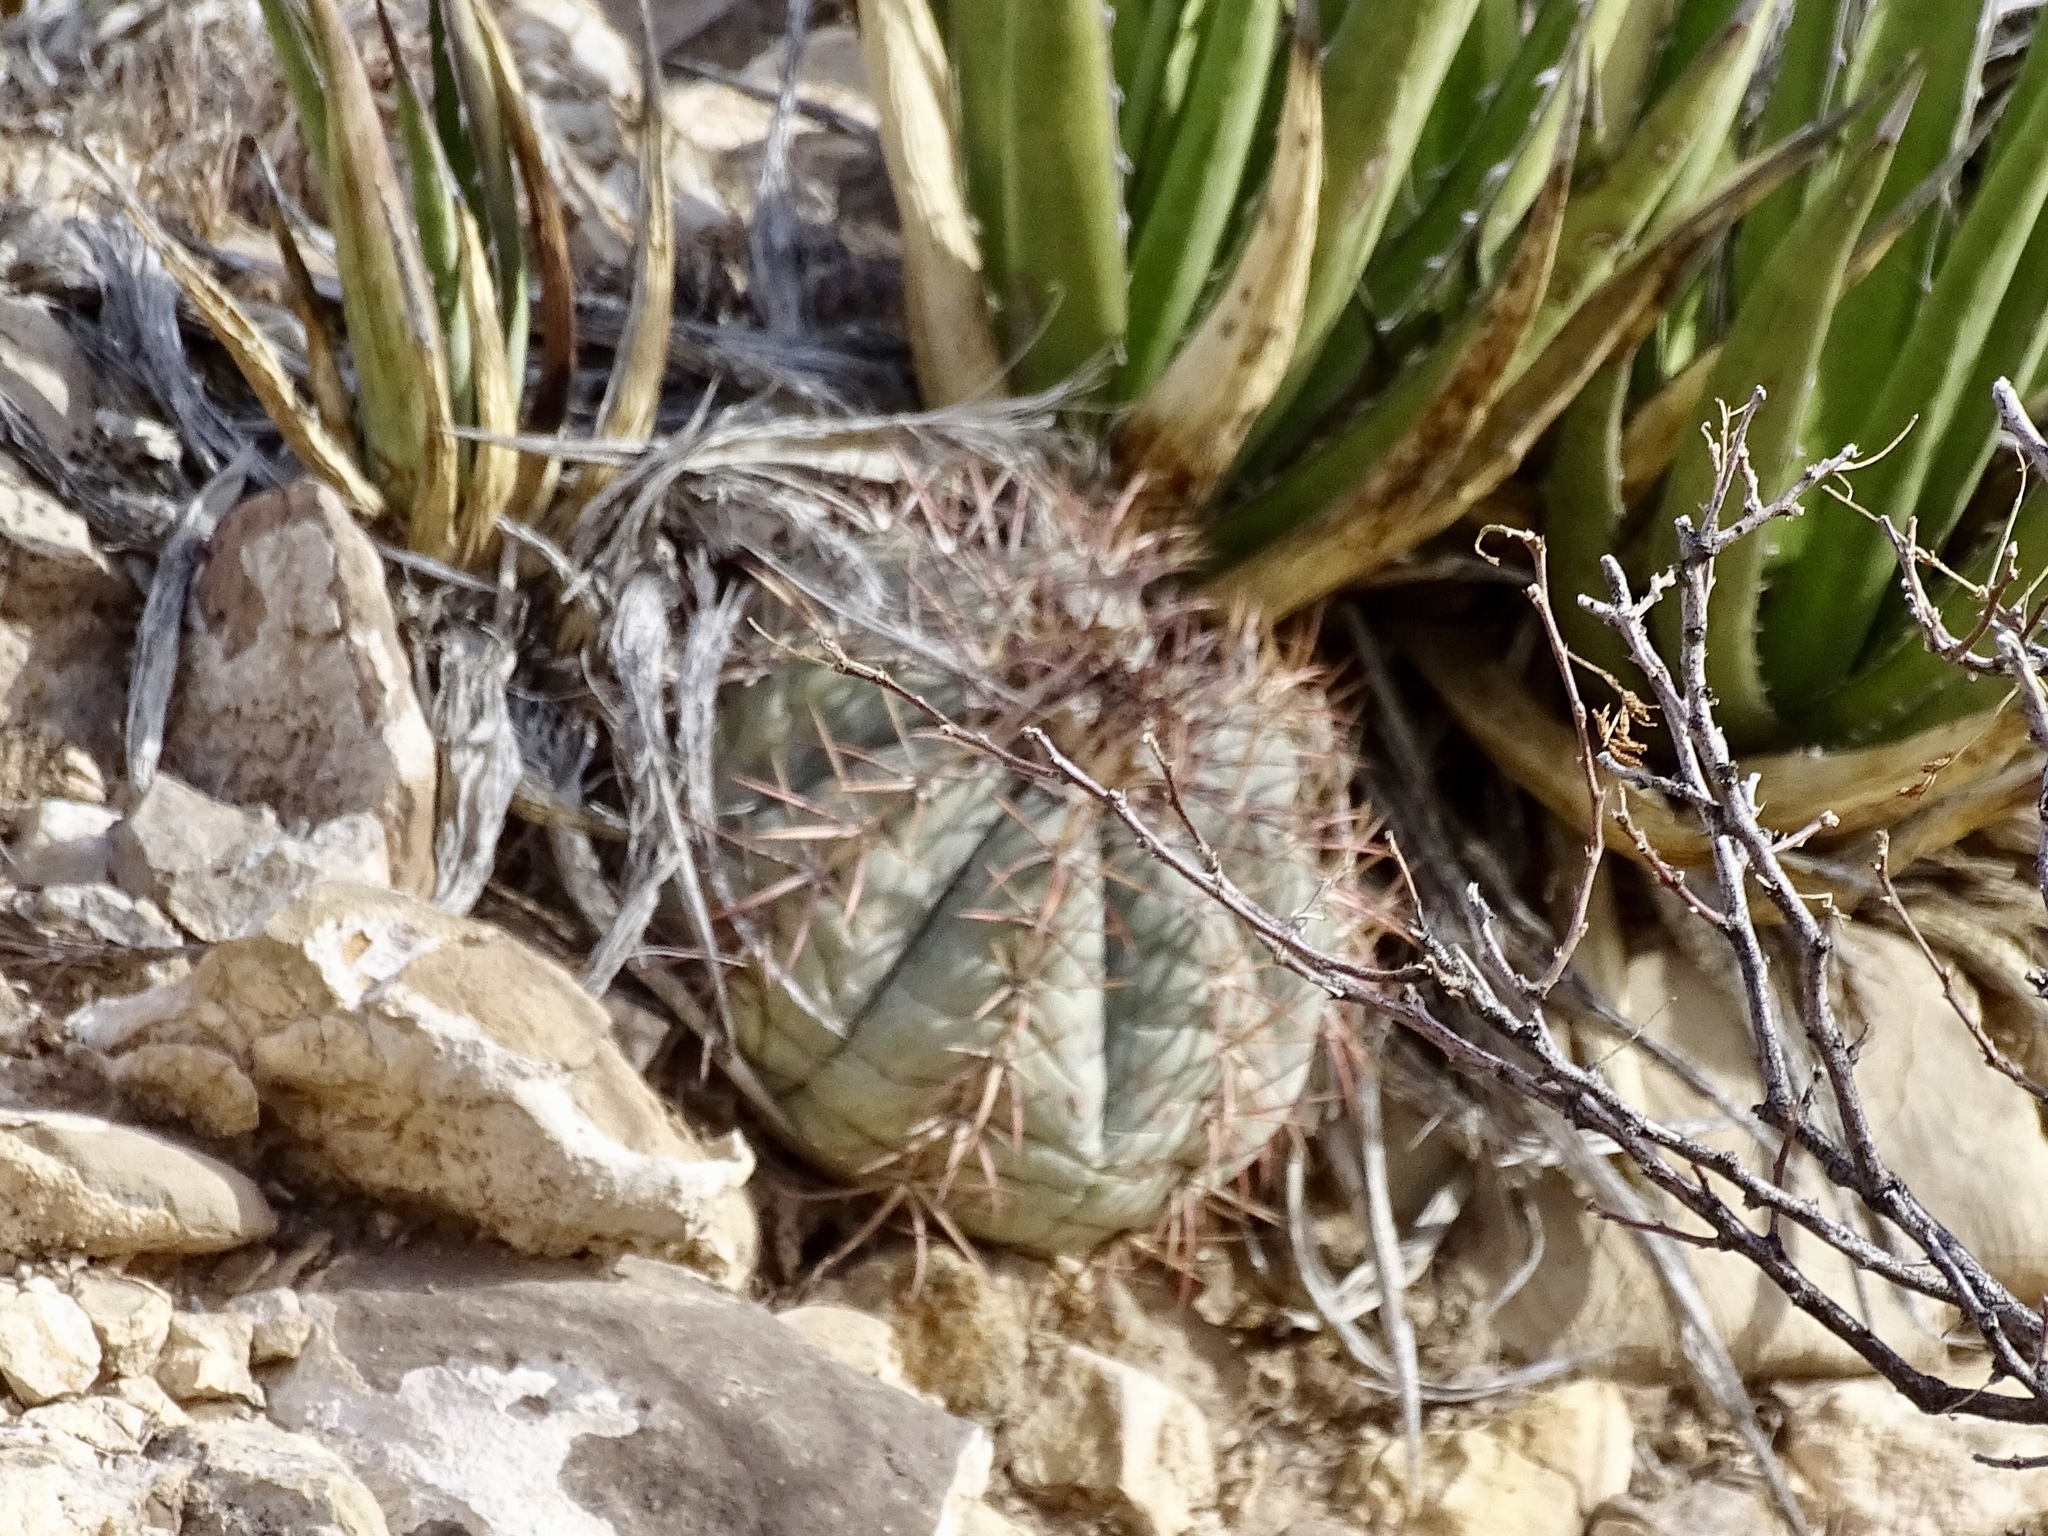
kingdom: Plantae
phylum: Tracheophyta
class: Magnoliopsida
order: Caryophyllales
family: Cactaceae
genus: Echinocactus
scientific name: Echinocactus horizonthalonius
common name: Devilshead
